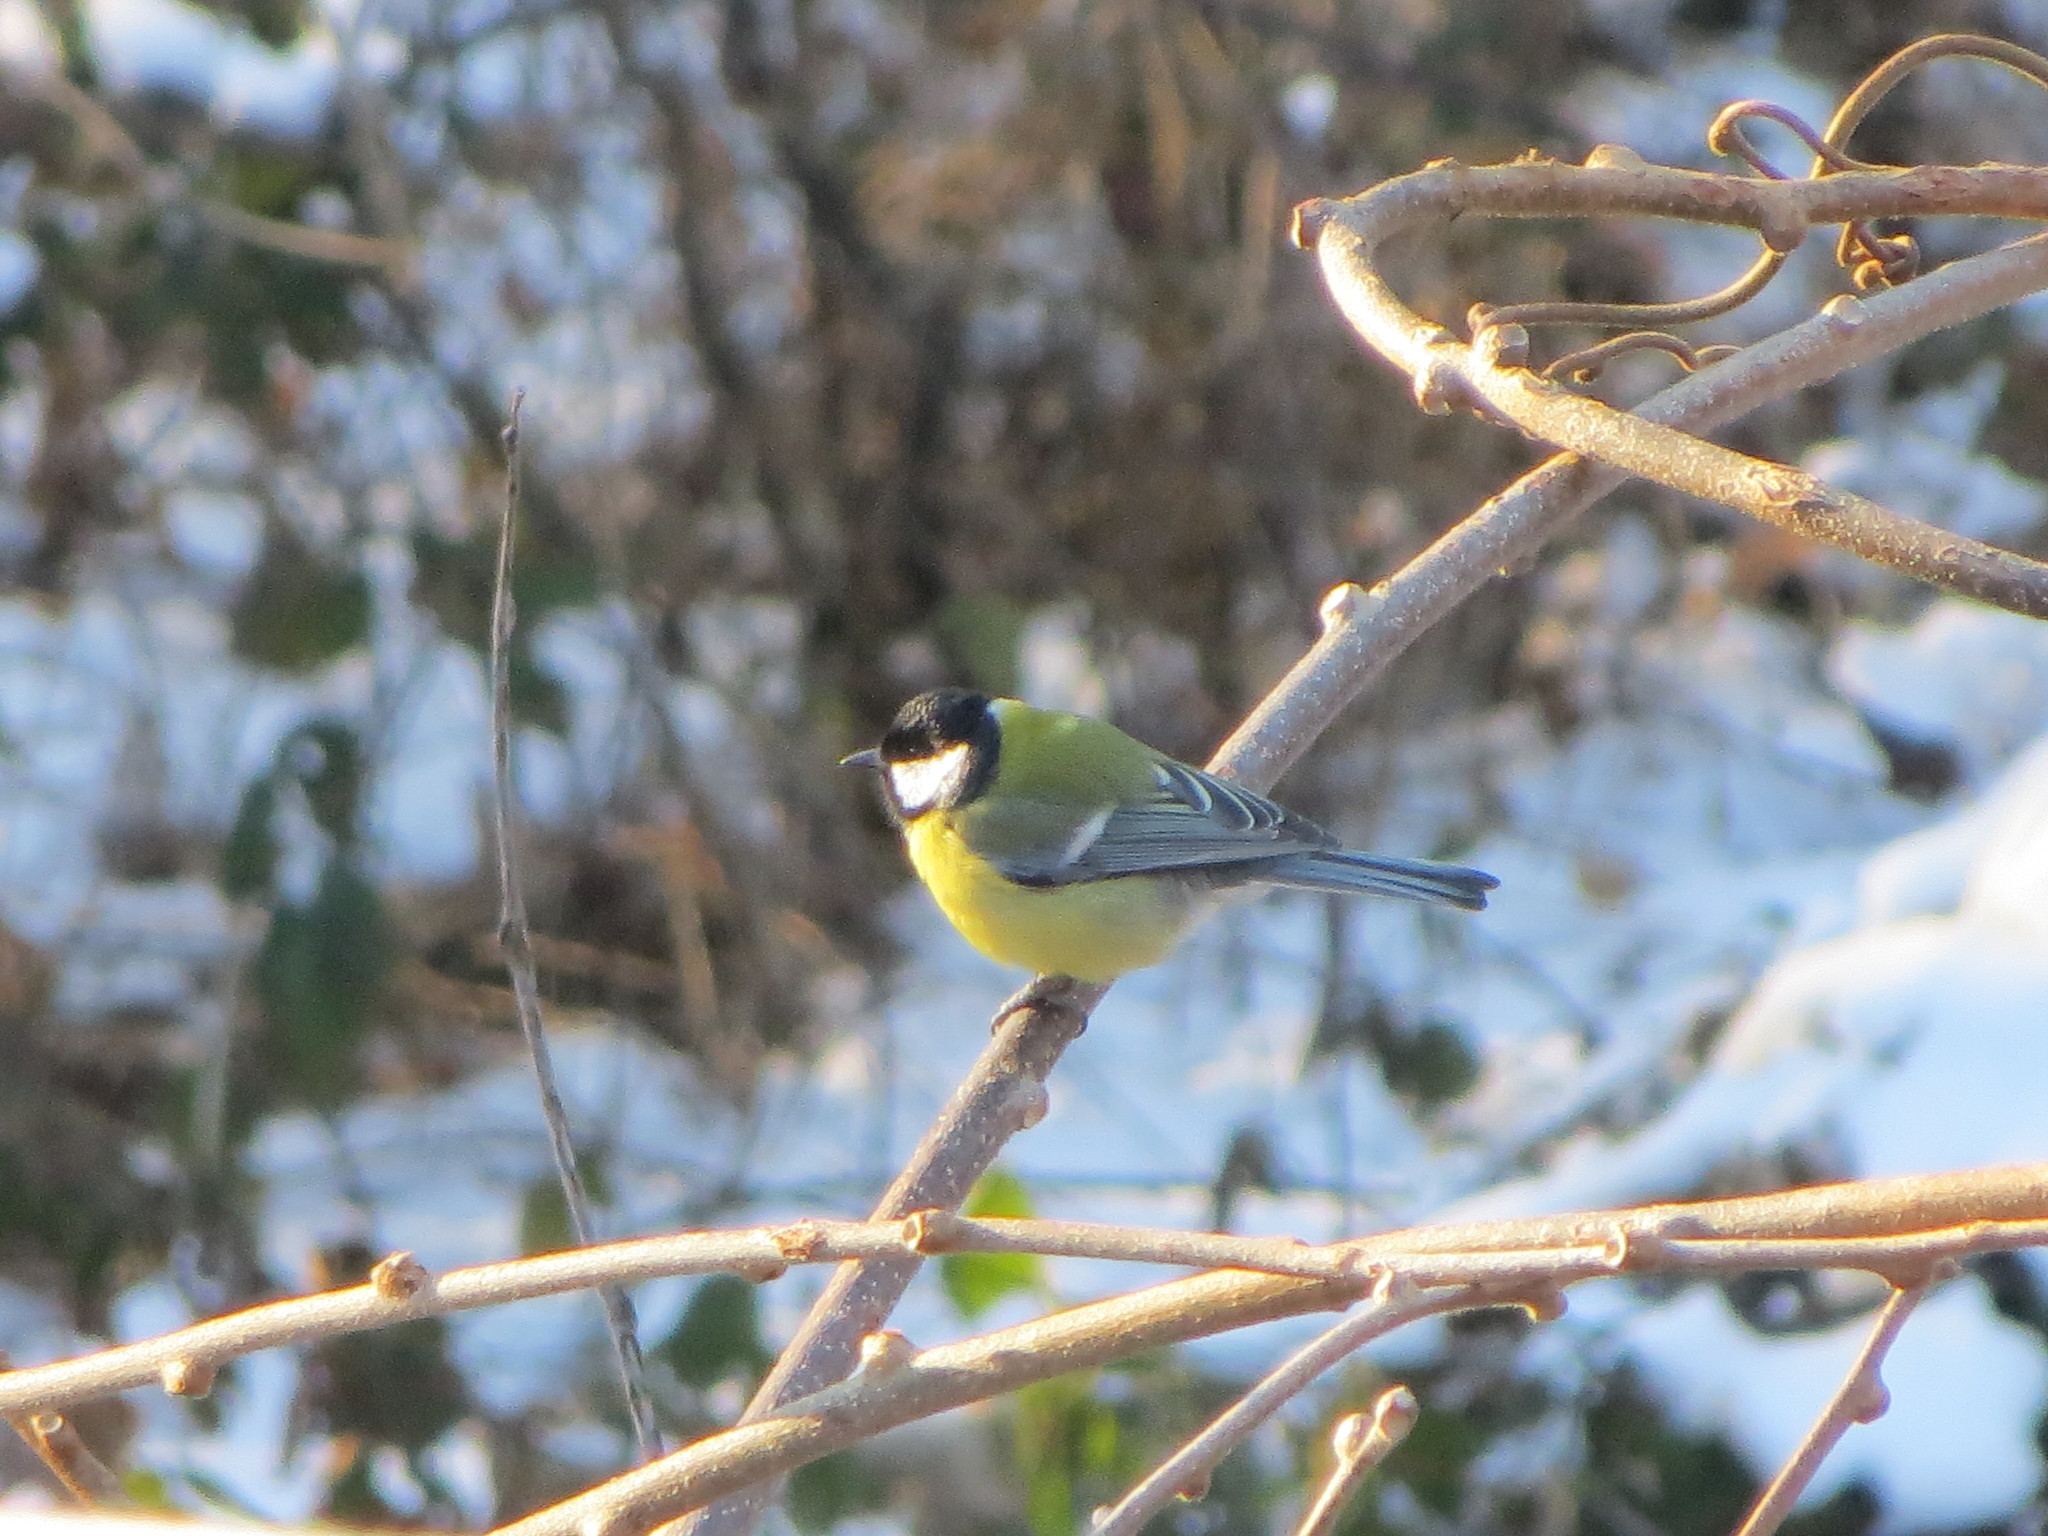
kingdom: Animalia
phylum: Chordata
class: Aves
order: Passeriformes
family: Paridae
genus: Parus
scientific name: Parus major
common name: Great tit
